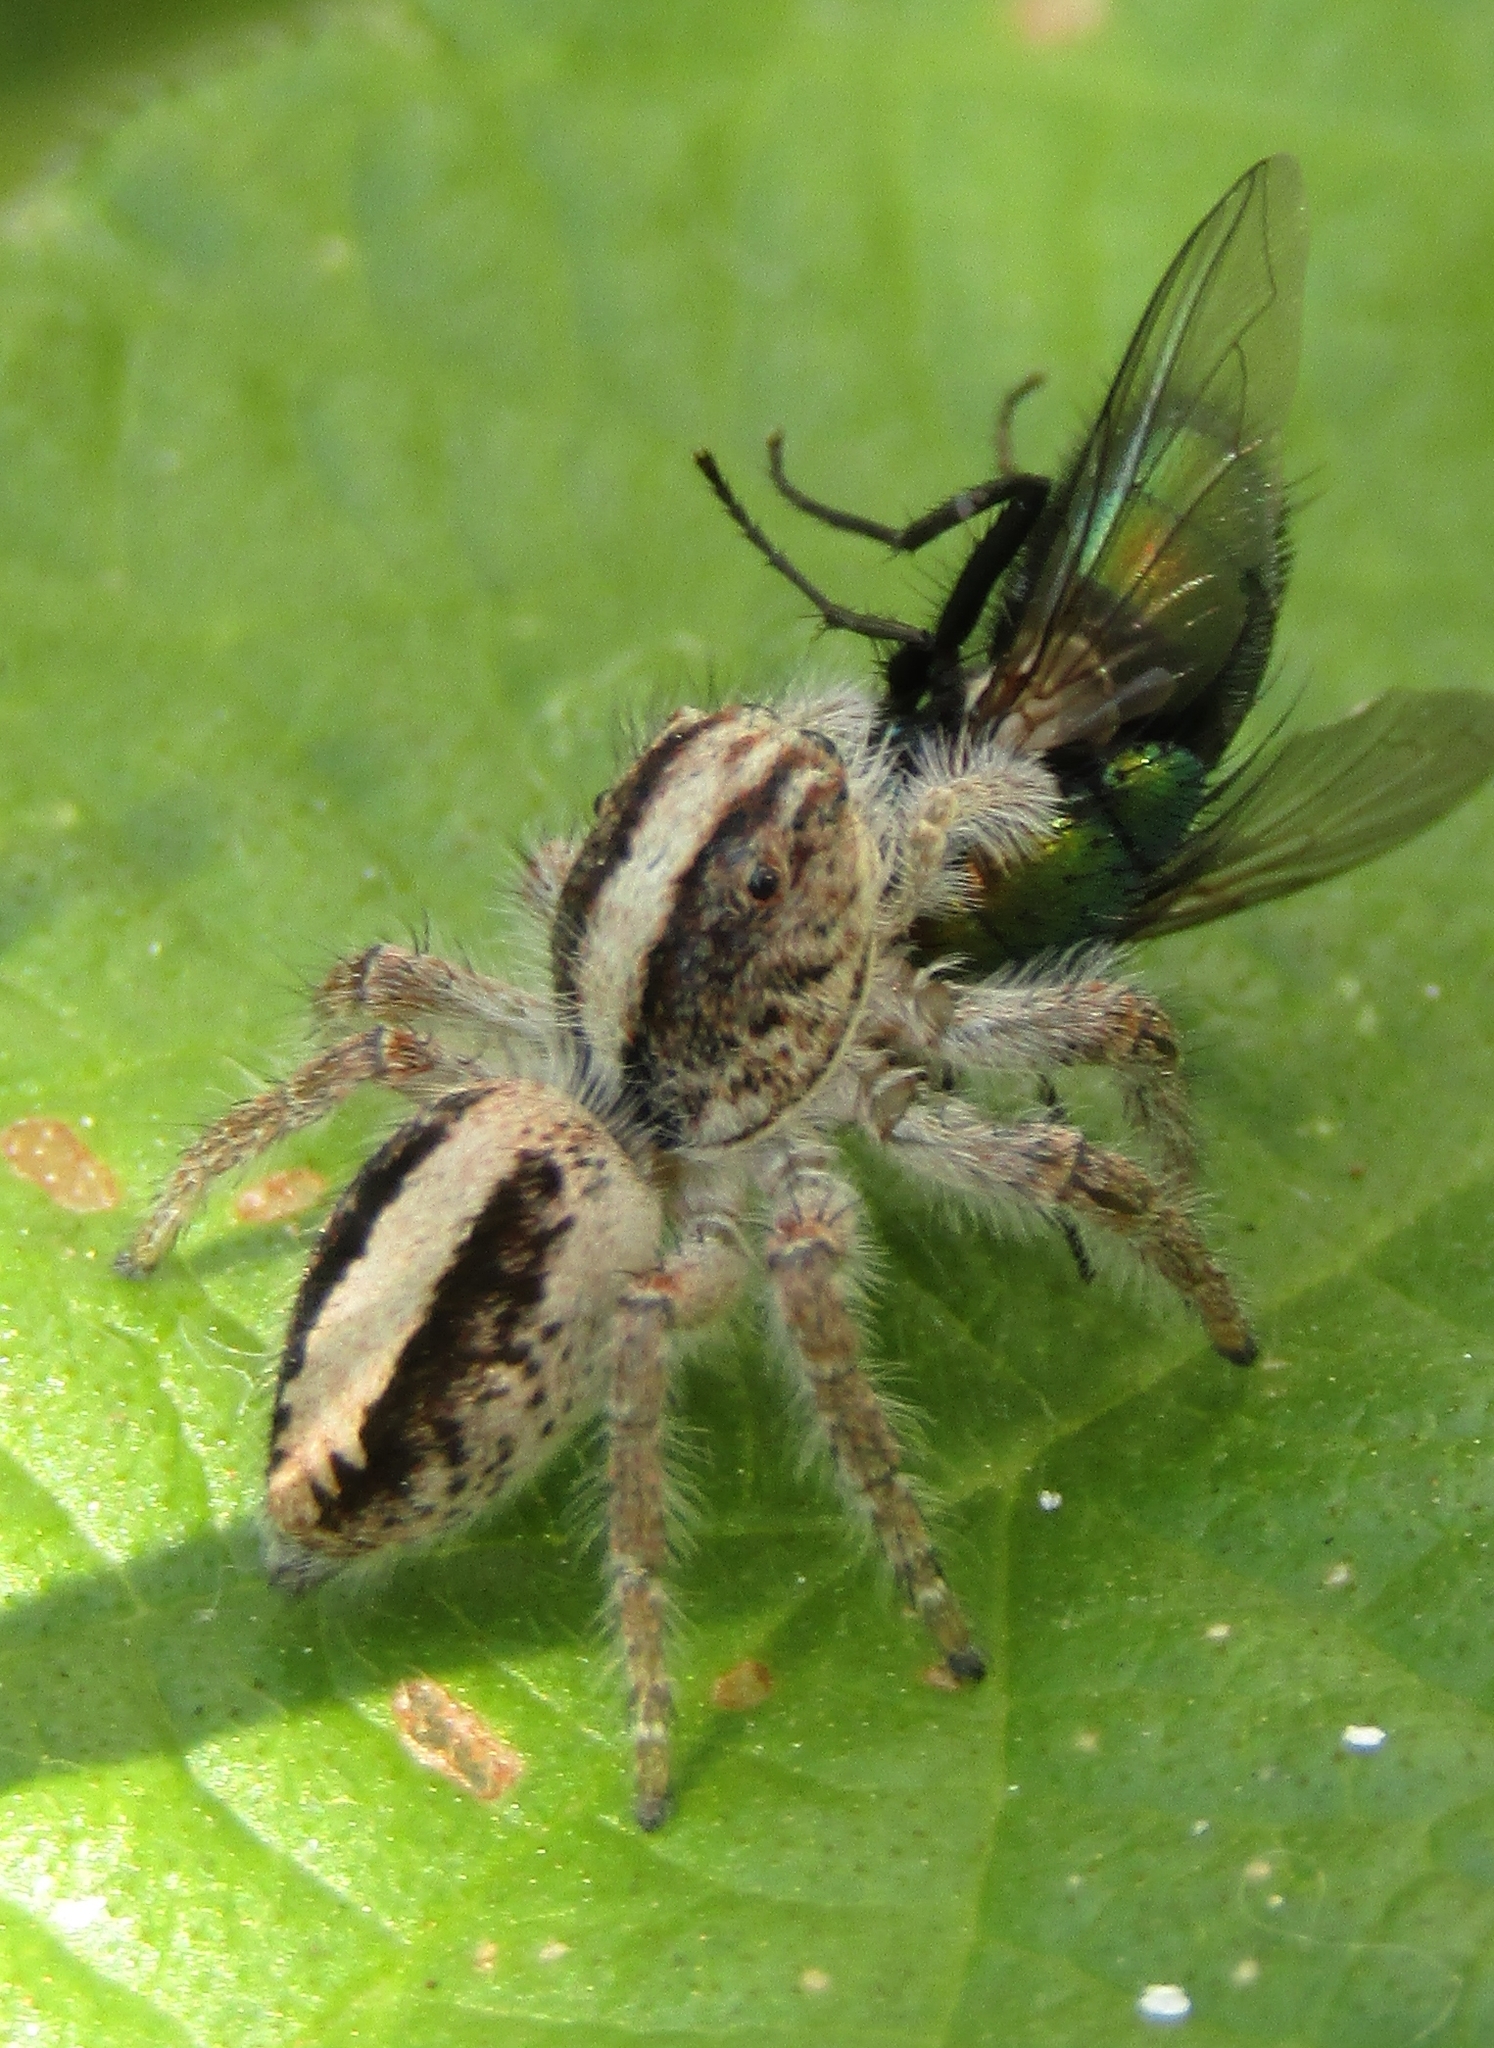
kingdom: Animalia
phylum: Arthropoda
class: Arachnida
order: Araneae
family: Salticidae
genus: Megafreya
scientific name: Megafreya sutrix
